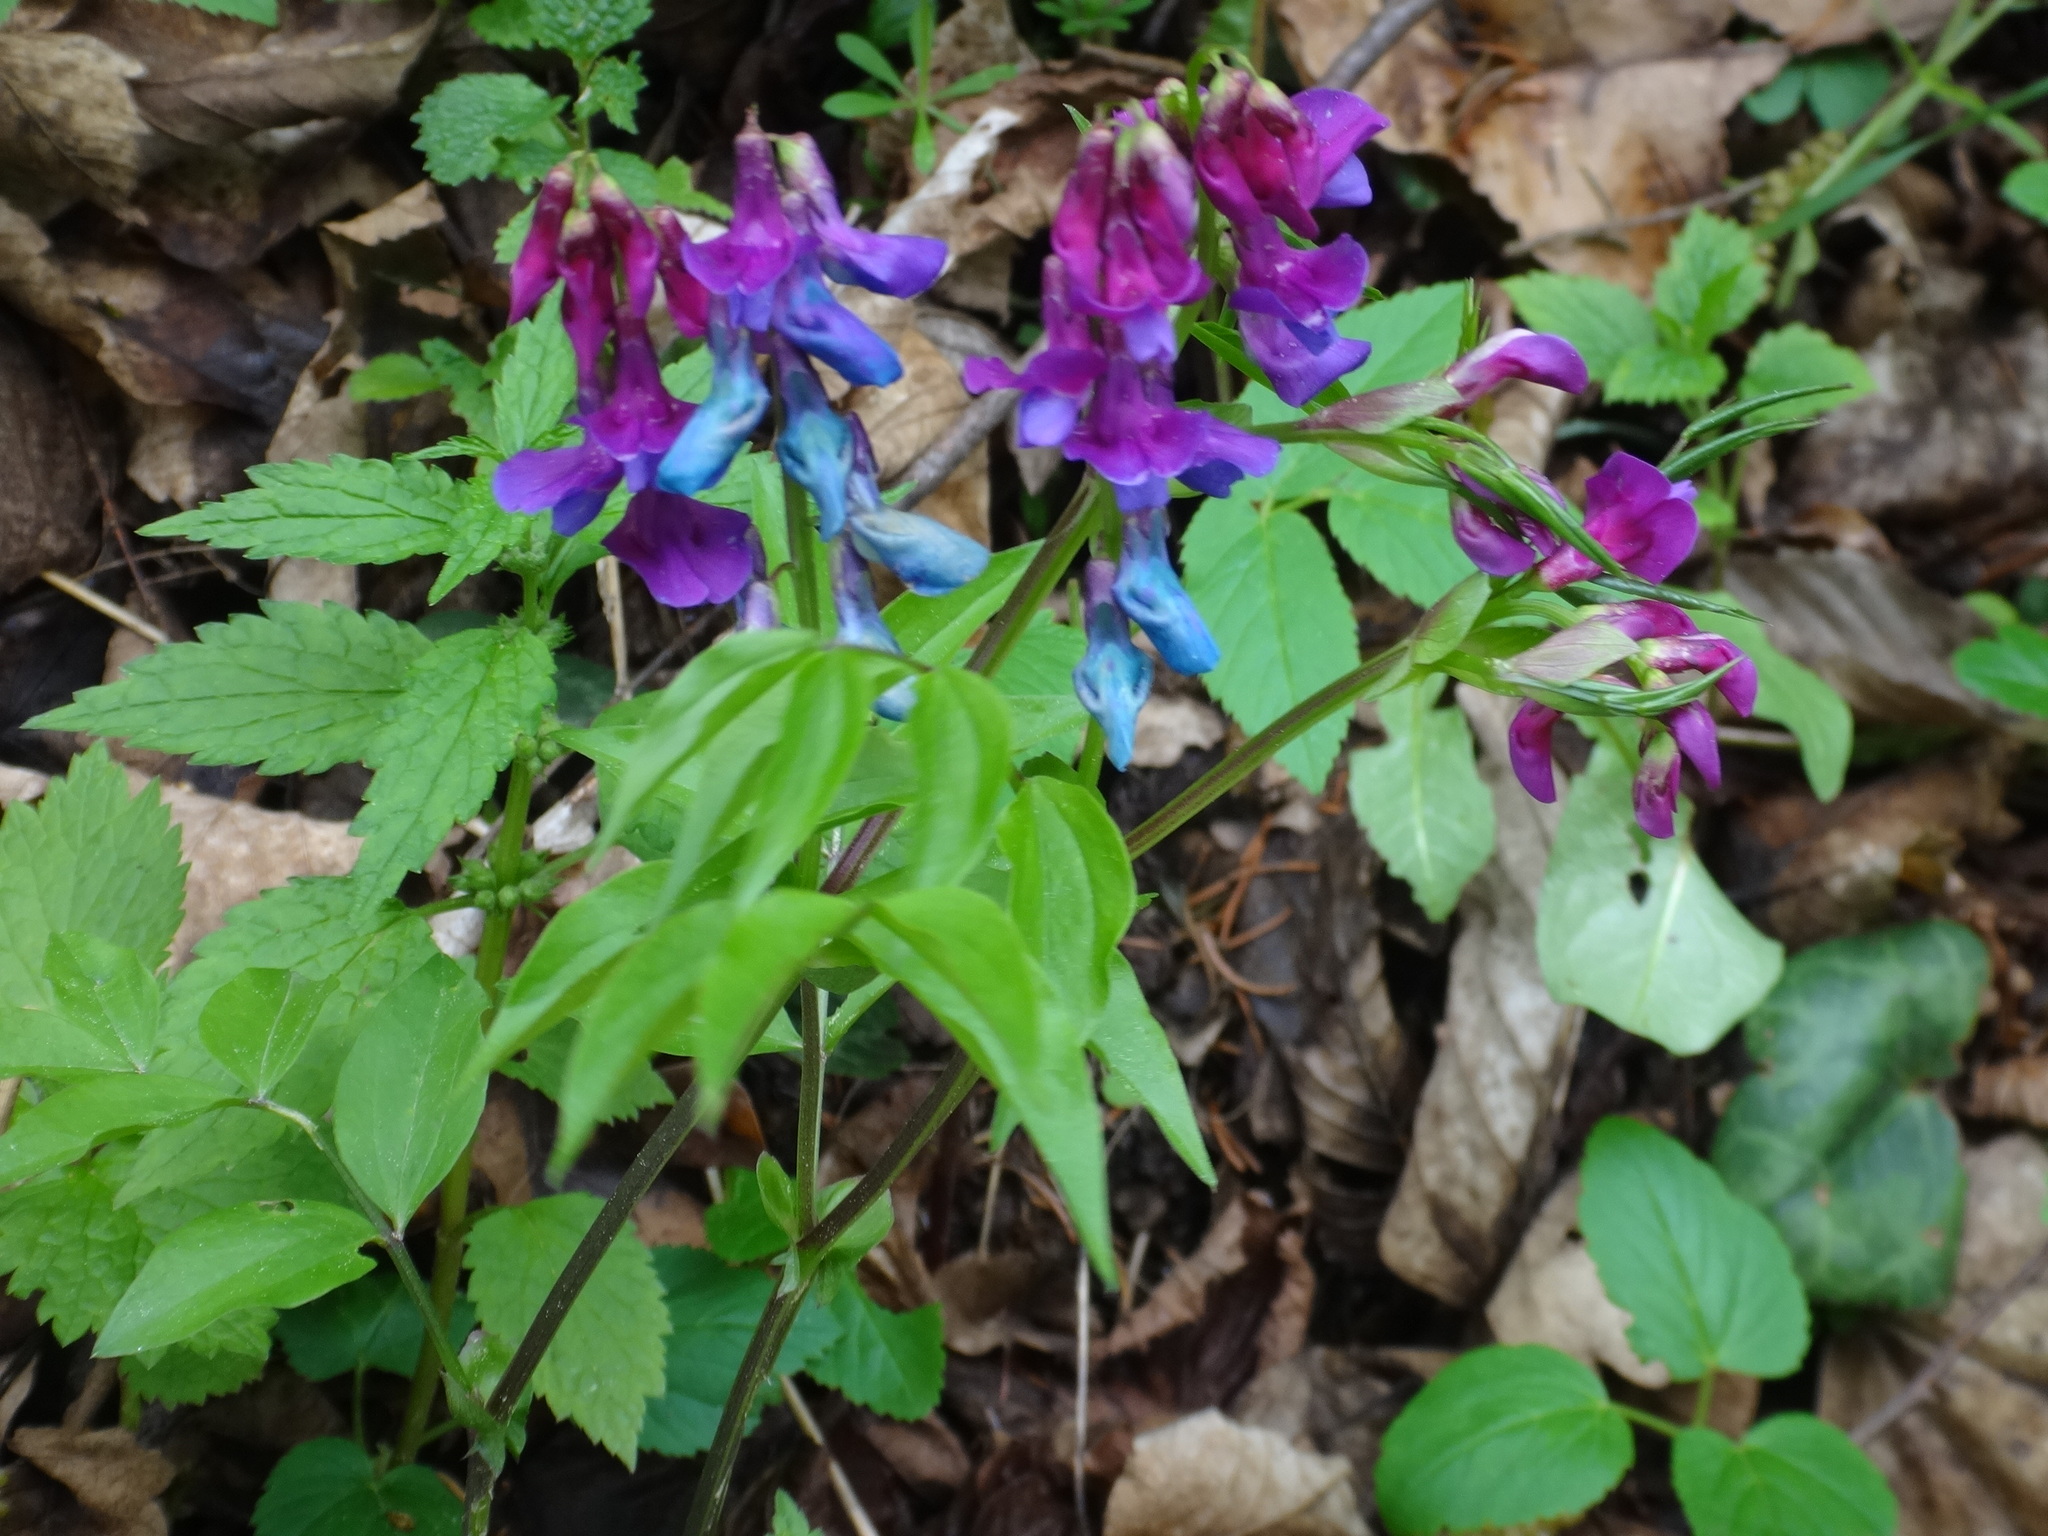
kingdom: Plantae
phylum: Tracheophyta
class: Magnoliopsida
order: Fabales
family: Fabaceae
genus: Lathyrus
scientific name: Lathyrus vernus
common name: Spring pea
